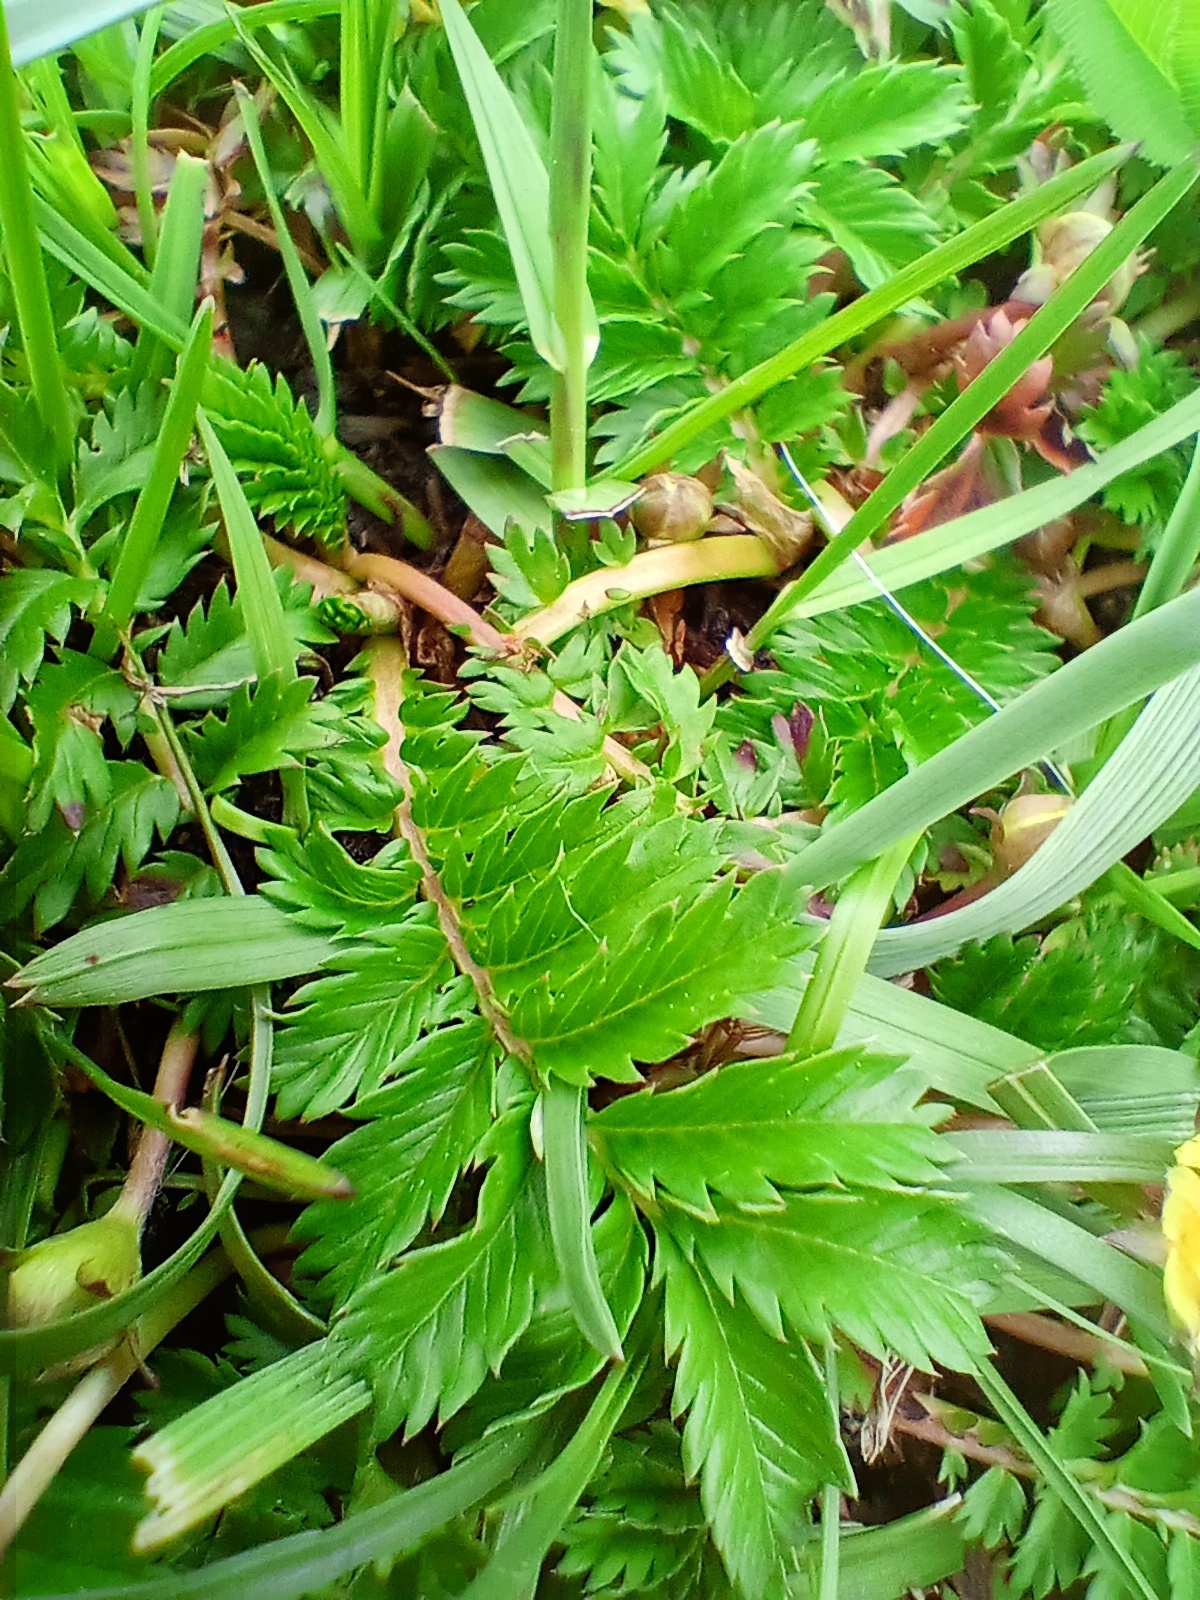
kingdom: Plantae
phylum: Tracheophyta
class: Magnoliopsida
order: Rosales
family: Rosaceae
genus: Argentina
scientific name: Argentina anserina
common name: Common silverweed
